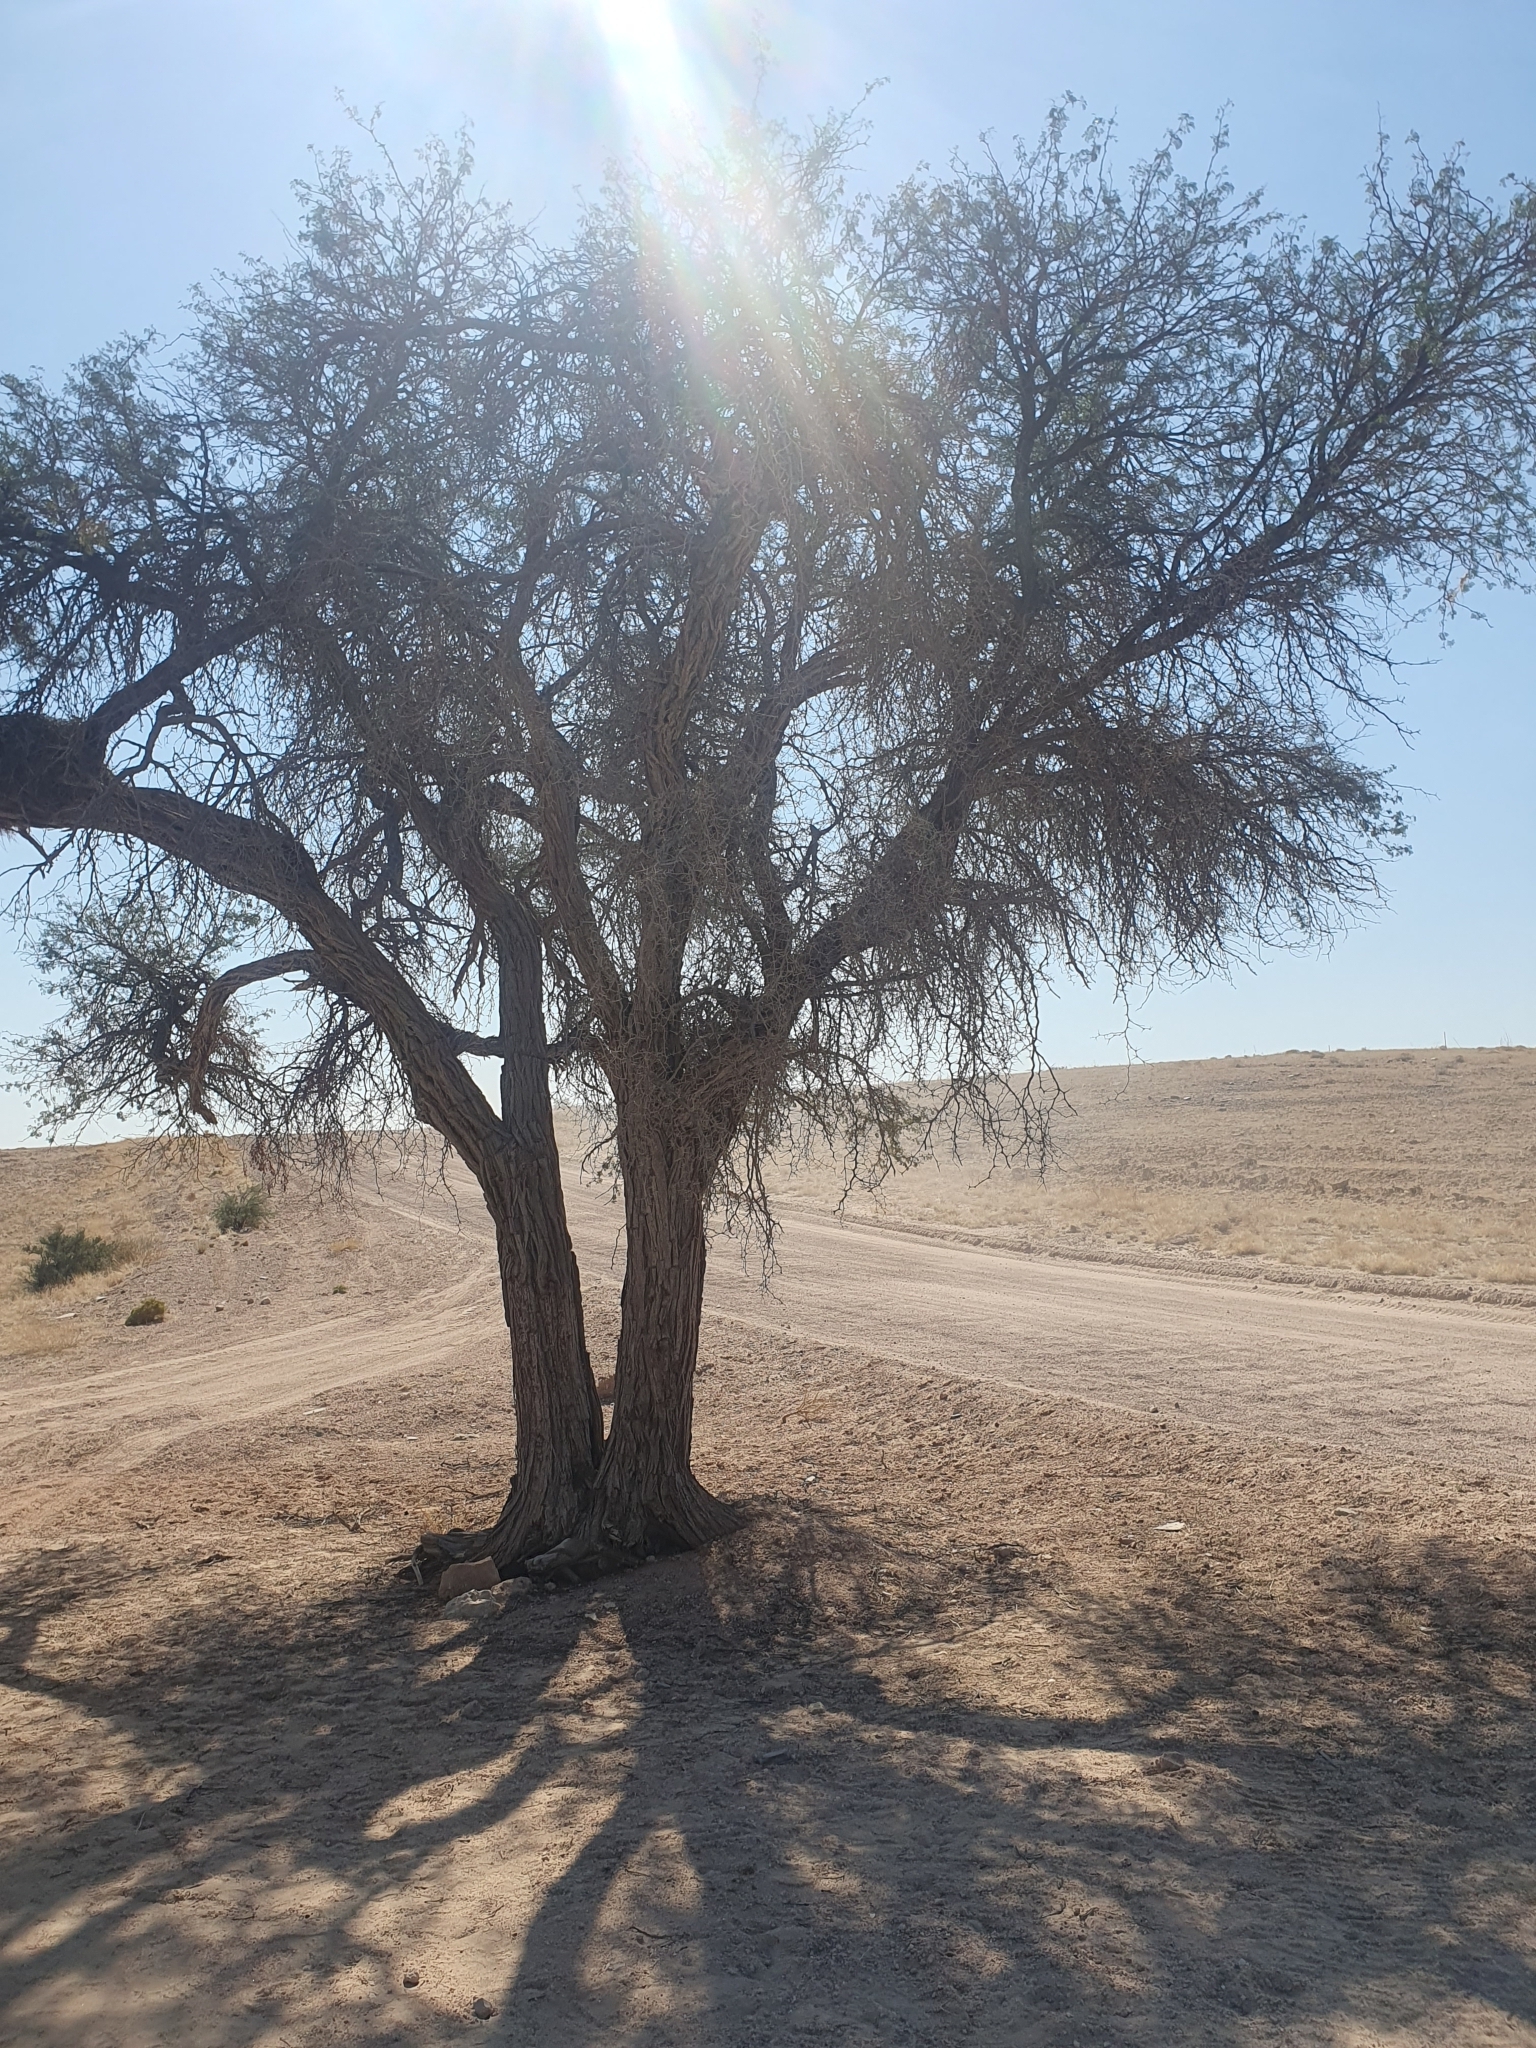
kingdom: Plantae
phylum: Tracheophyta
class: Magnoliopsida
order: Fabales
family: Fabaceae
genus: Vachellia
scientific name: Vachellia erioloba
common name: Camel thorn
